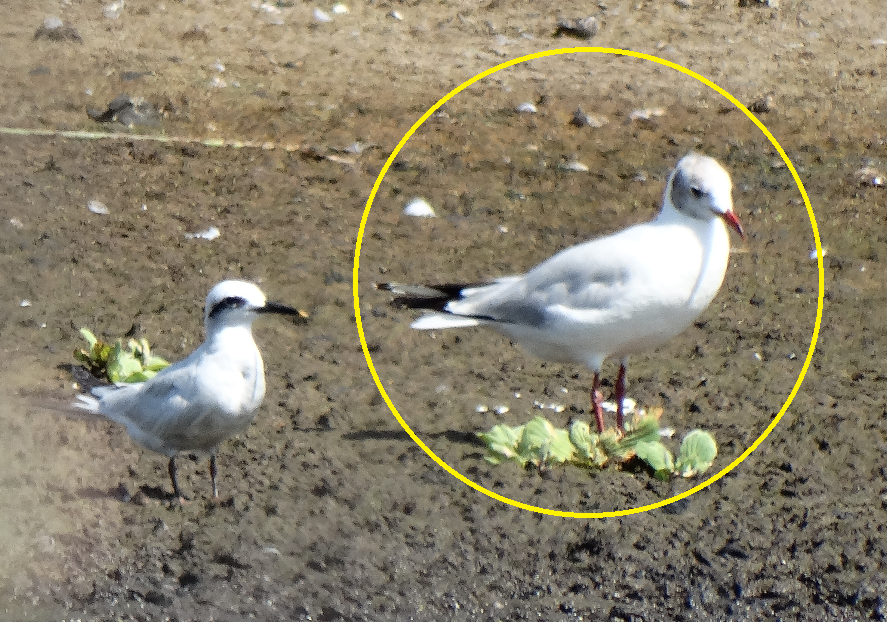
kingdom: Animalia
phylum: Chordata
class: Aves
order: Charadriiformes
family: Laridae
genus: Chroicocephalus
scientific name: Chroicocephalus maculipennis
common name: Brown-hooded gull
